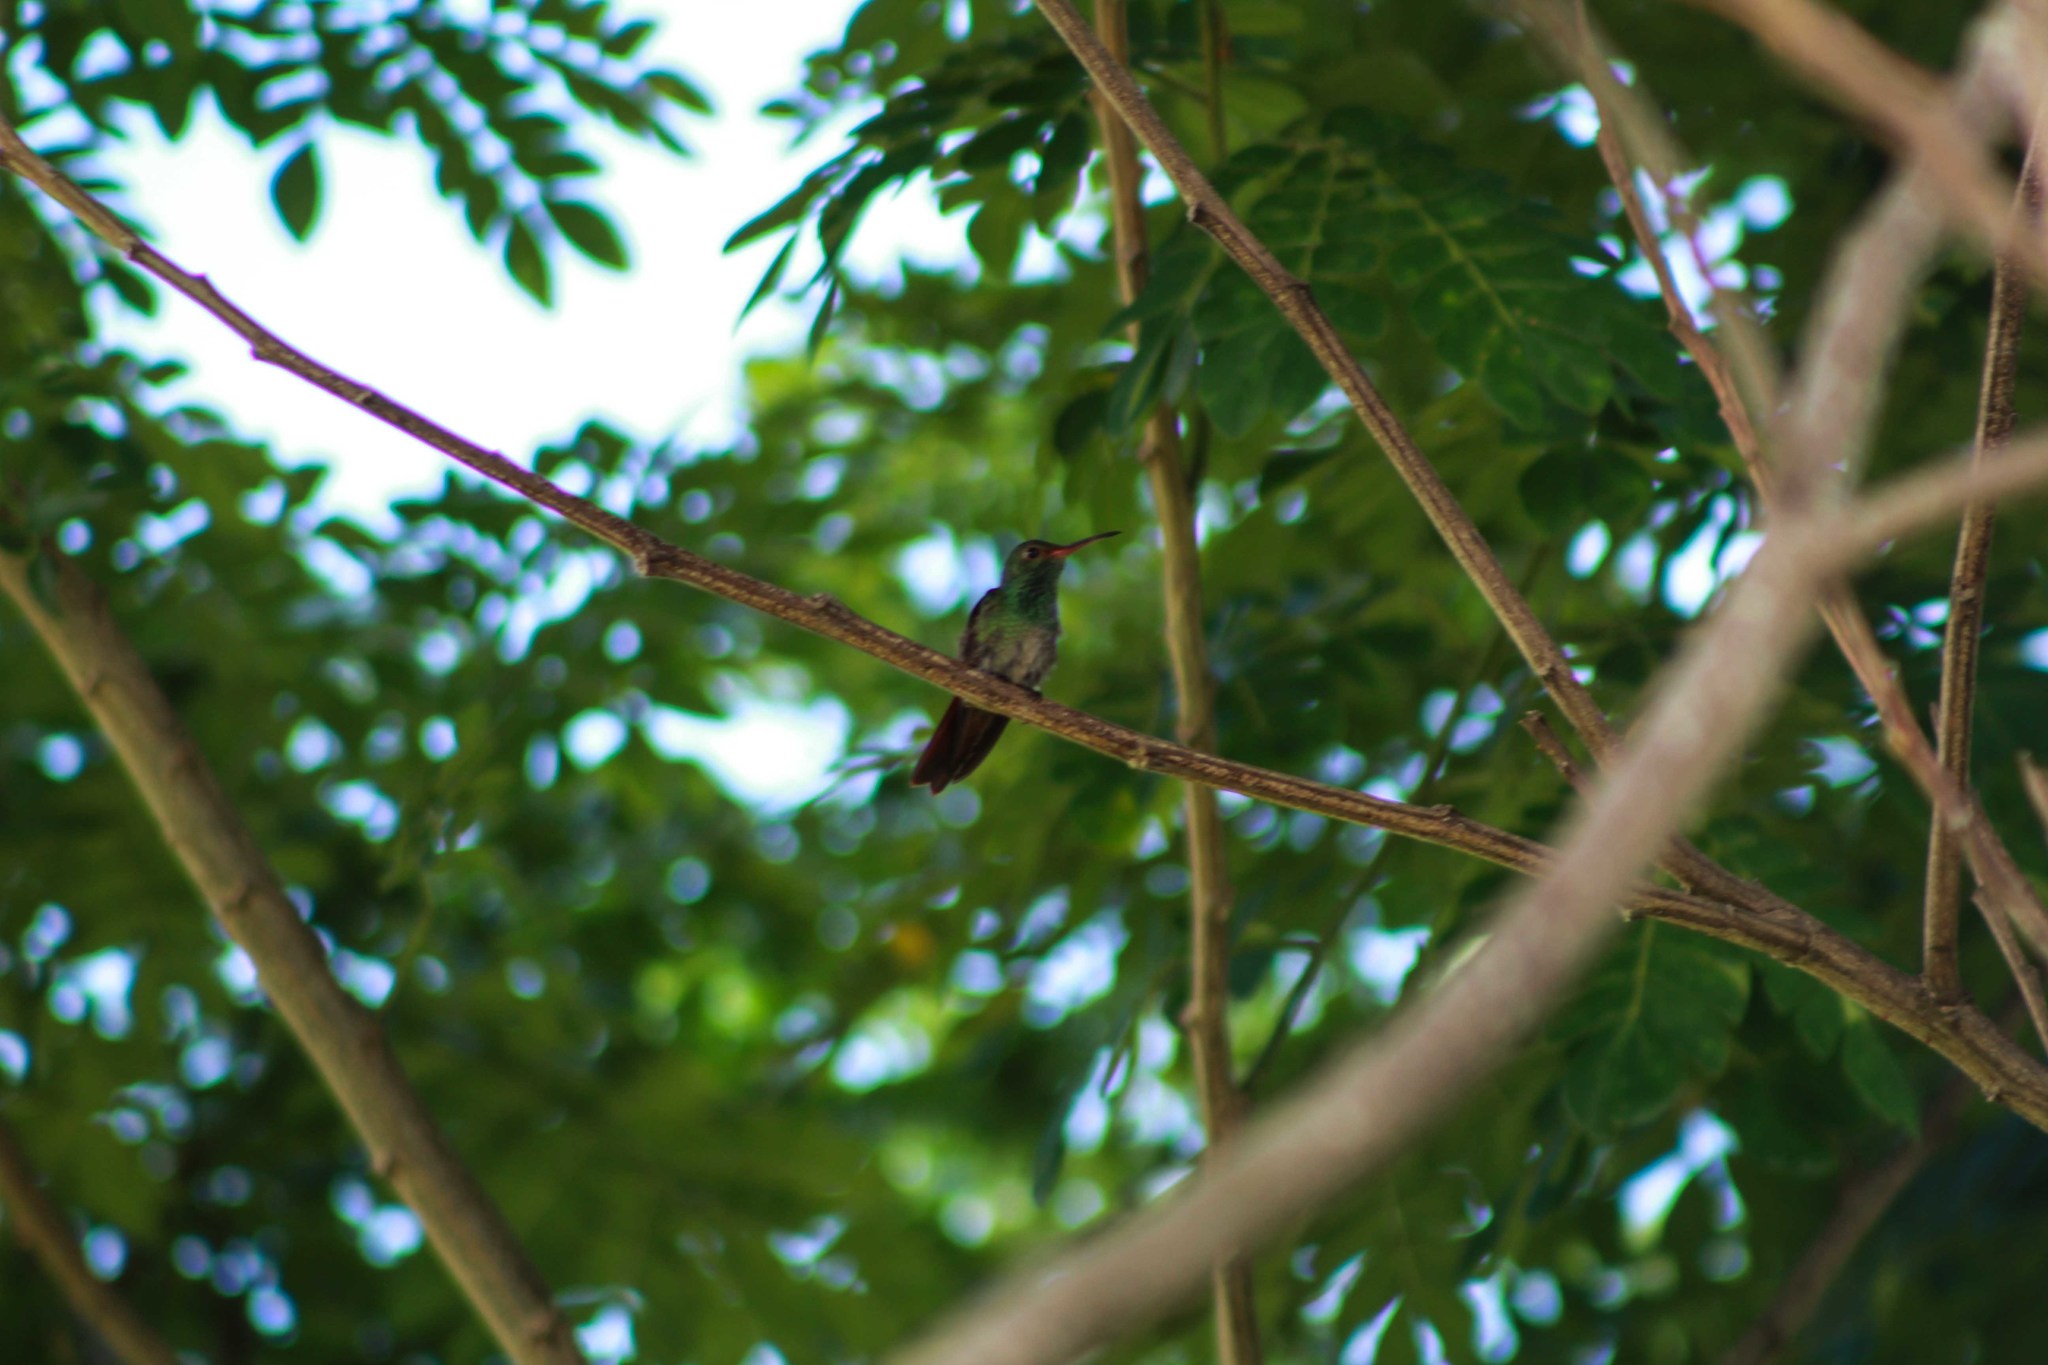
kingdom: Animalia
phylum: Chordata
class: Aves
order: Apodiformes
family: Trochilidae
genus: Amazilia
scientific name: Amazilia tzacatl
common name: Rufous-tailed hummingbird
